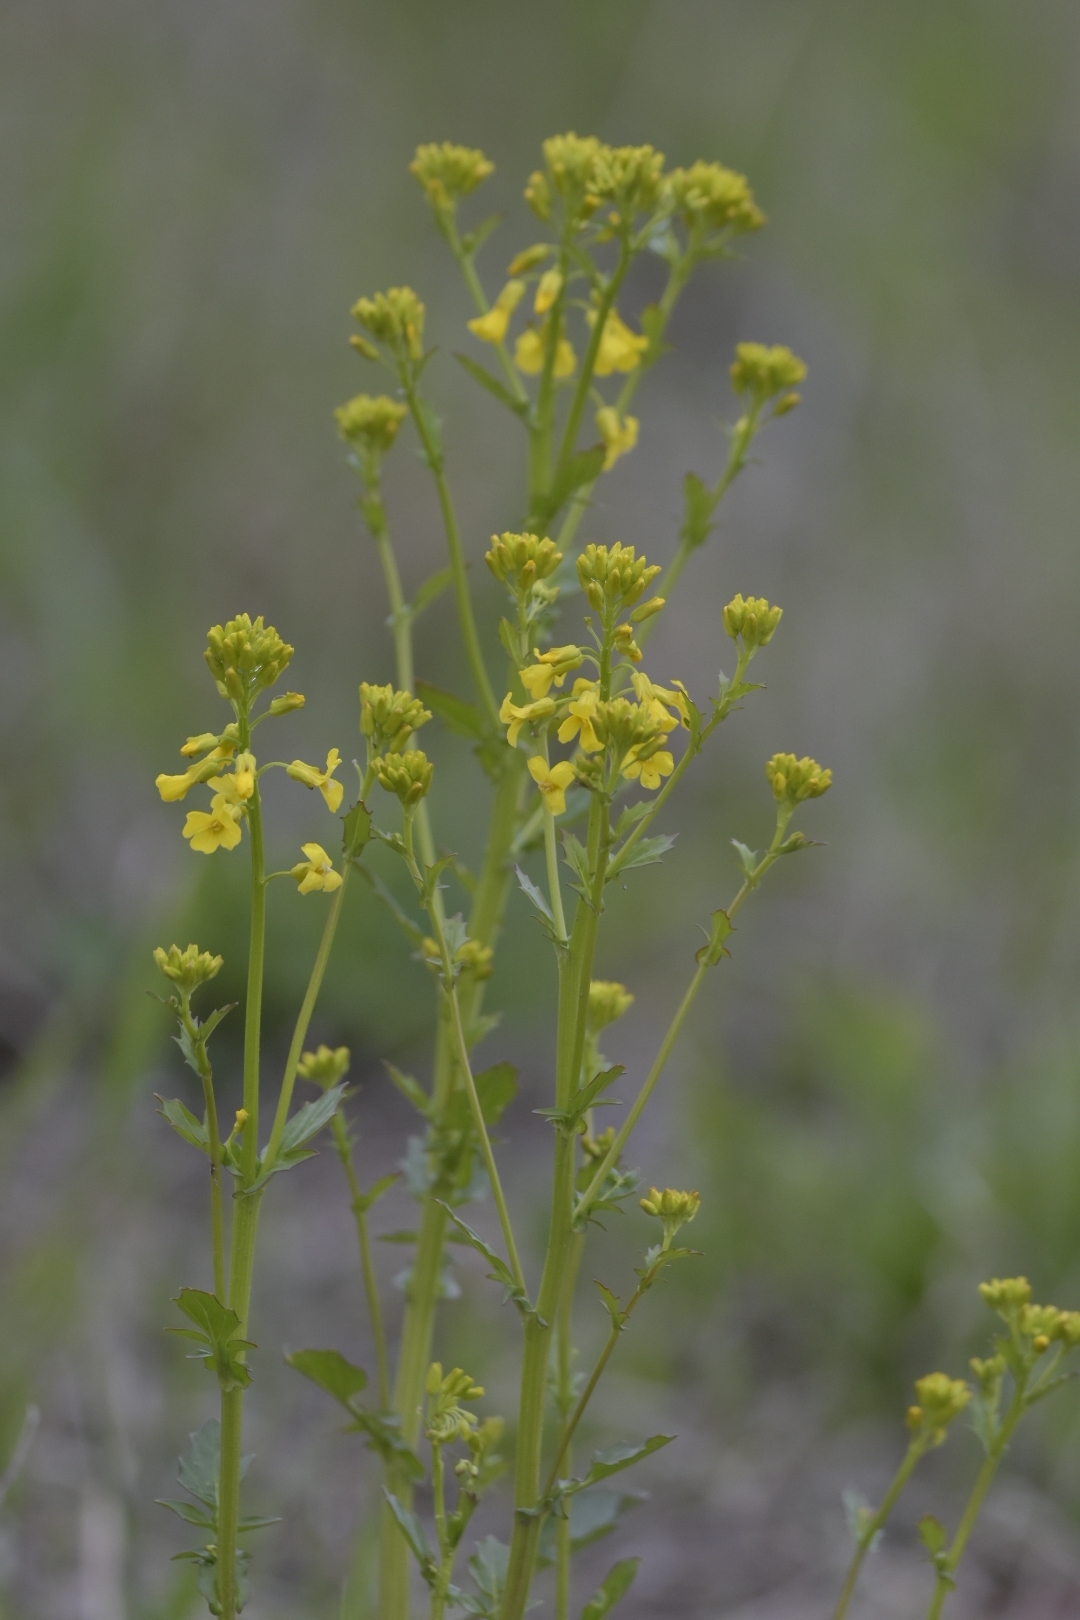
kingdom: Plantae
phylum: Tracheophyta
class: Magnoliopsida
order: Brassicales
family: Brassicaceae
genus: Barbarea
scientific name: Barbarea vulgaris
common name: Cressy-greens
